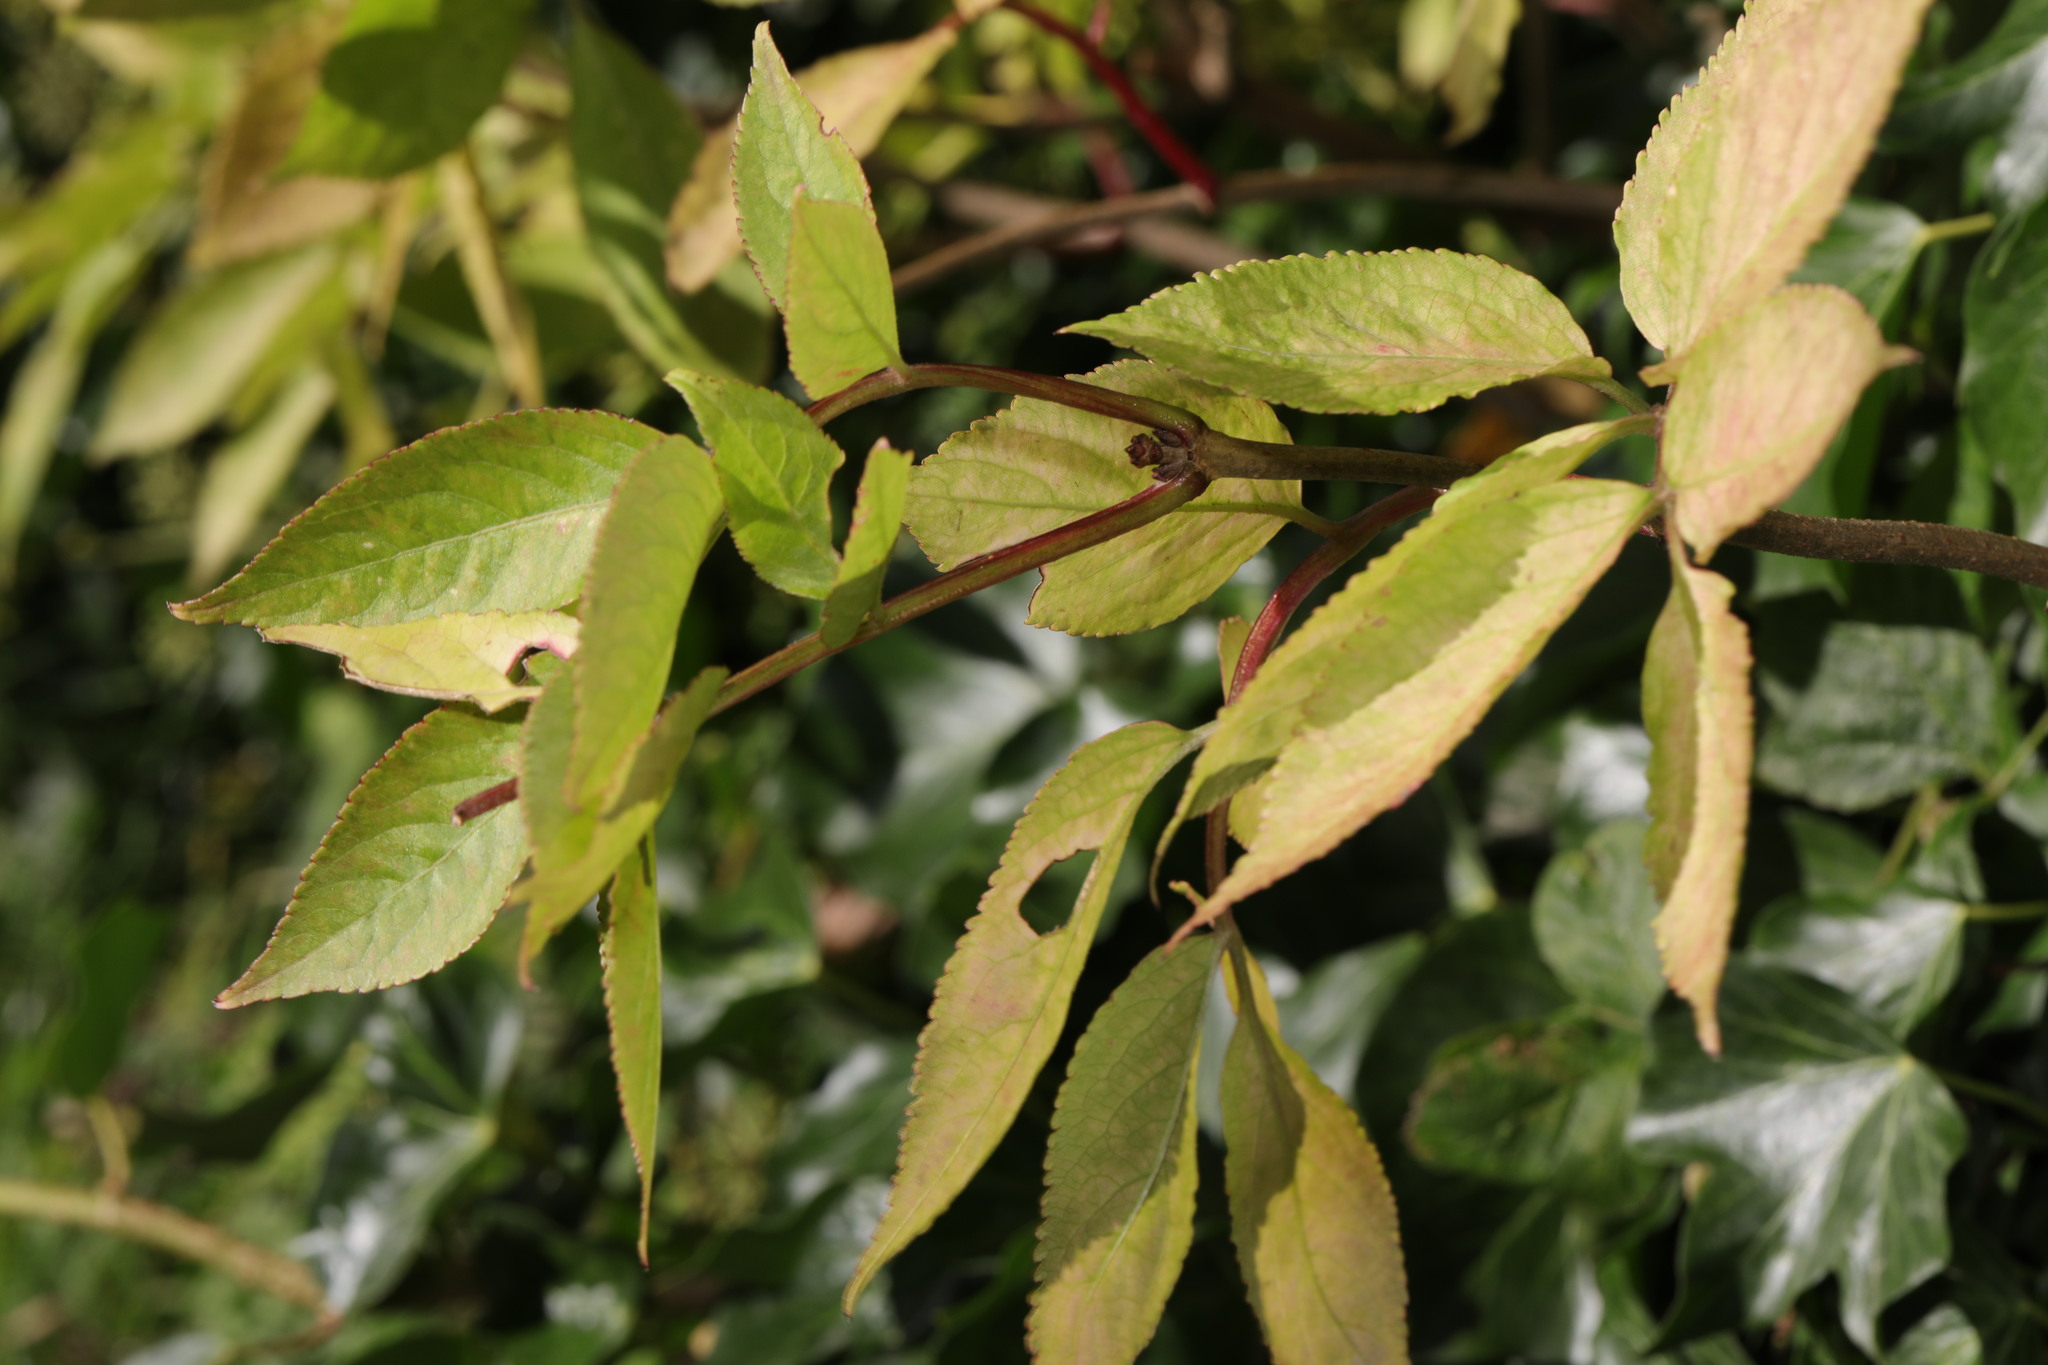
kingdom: Plantae
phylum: Tracheophyta
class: Magnoliopsida
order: Dipsacales
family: Viburnaceae
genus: Sambucus
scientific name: Sambucus nigra
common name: Elder
